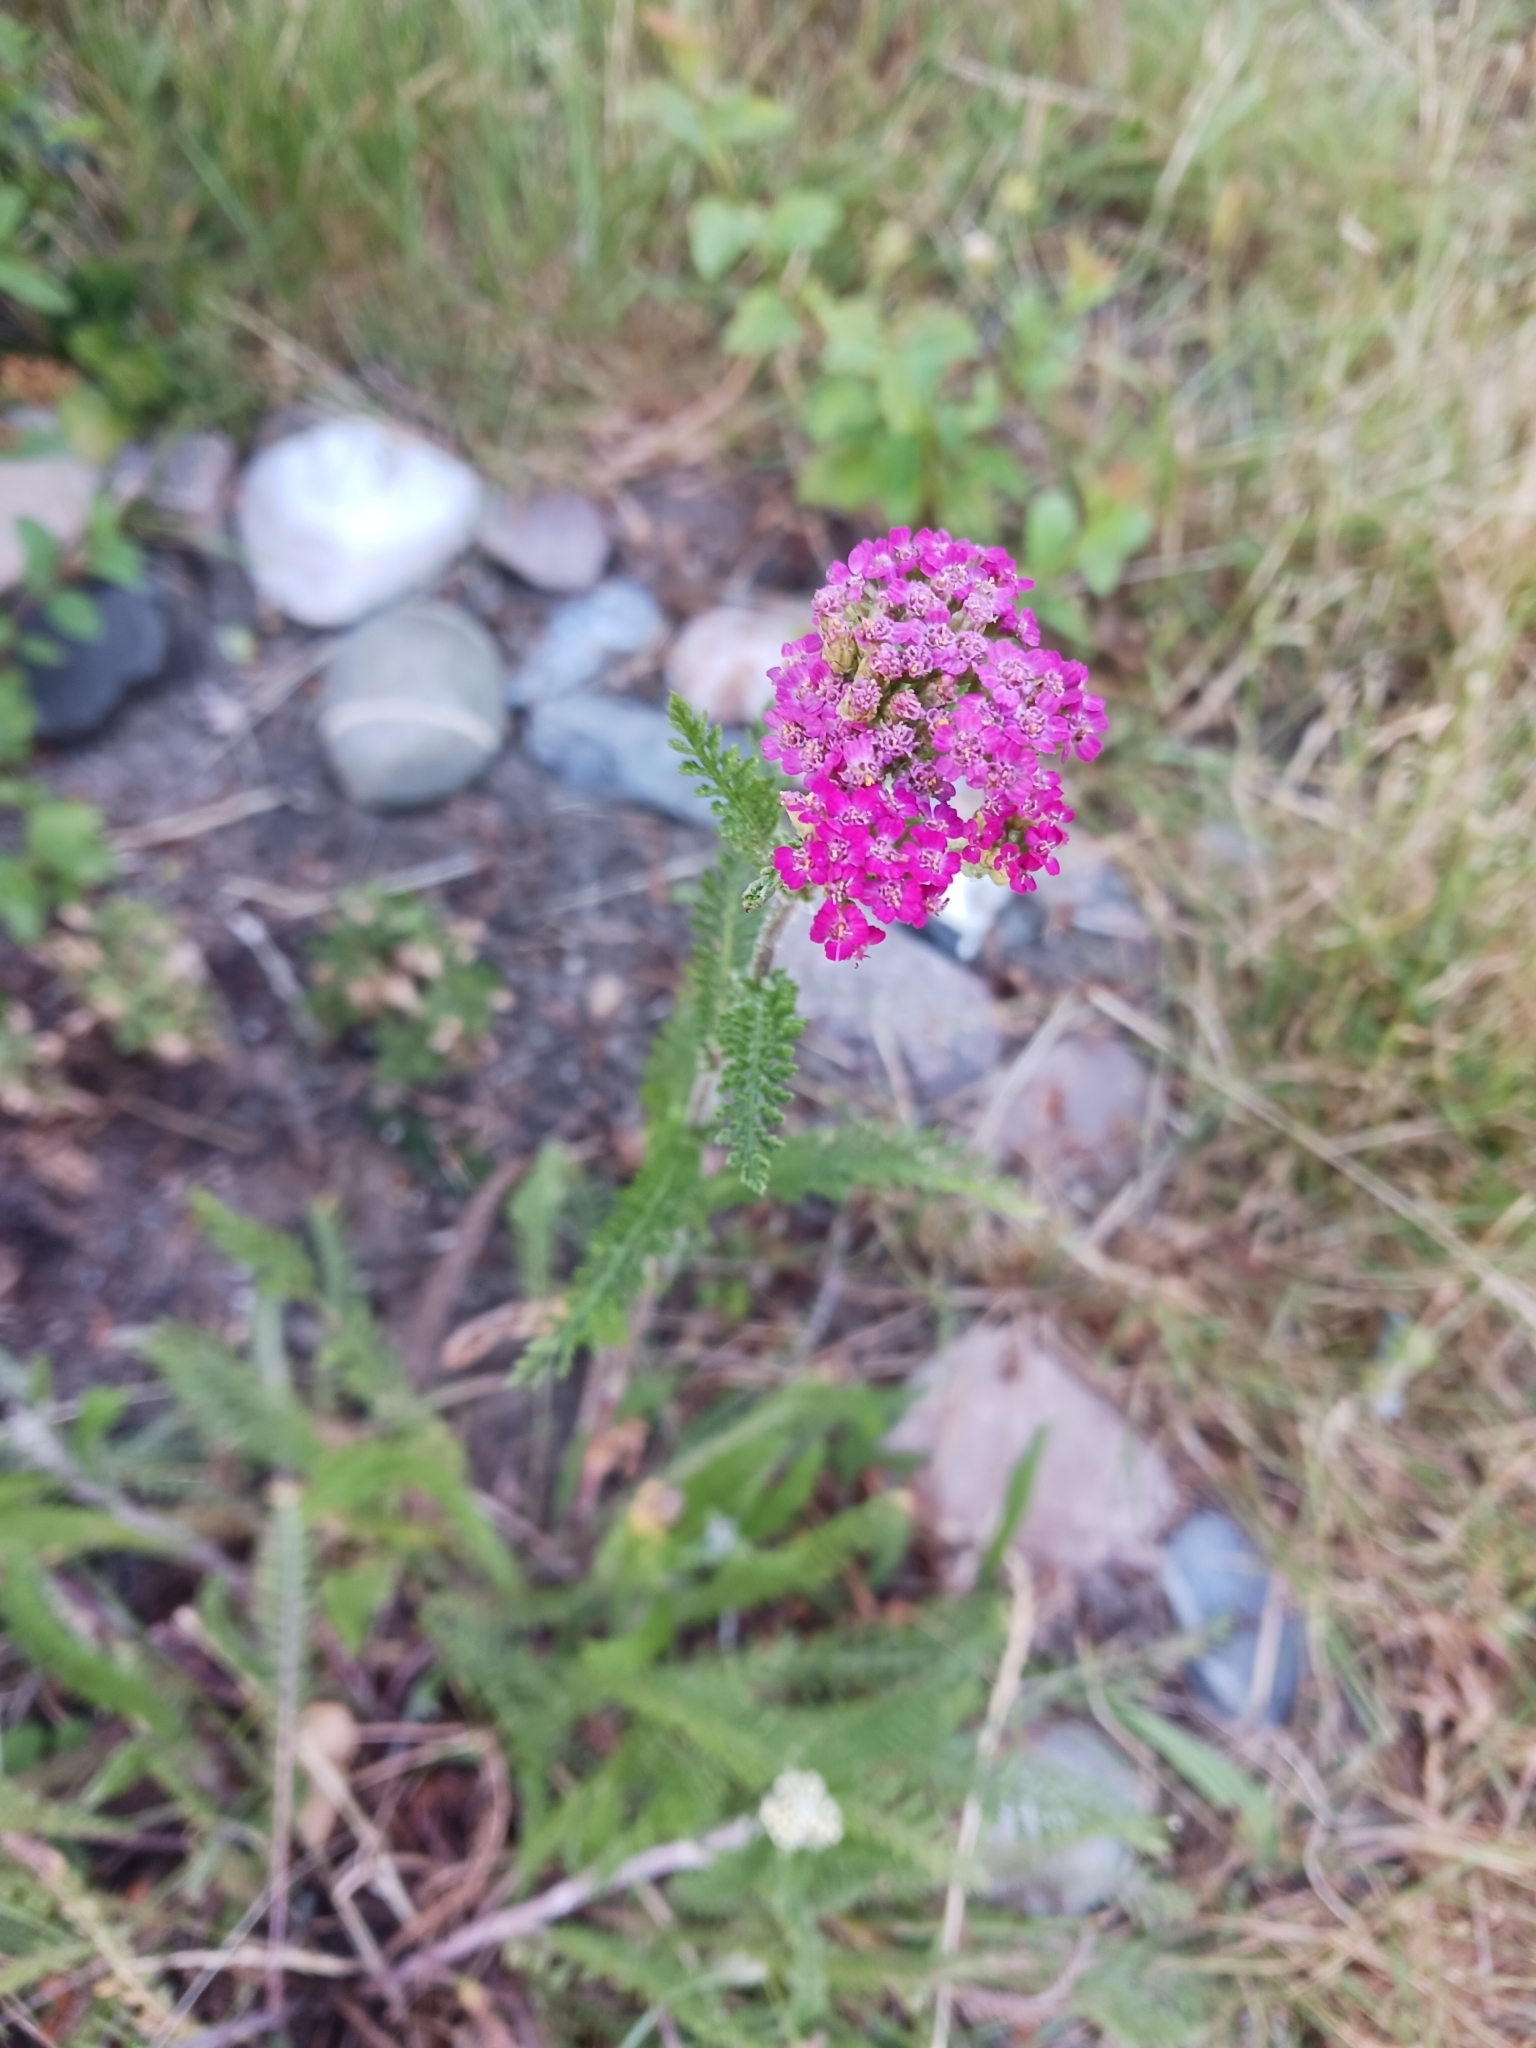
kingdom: Plantae
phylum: Tracheophyta
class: Magnoliopsida
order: Asterales
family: Asteraceae
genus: Achillea
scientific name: Achillea millefolium
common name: Yarrow
